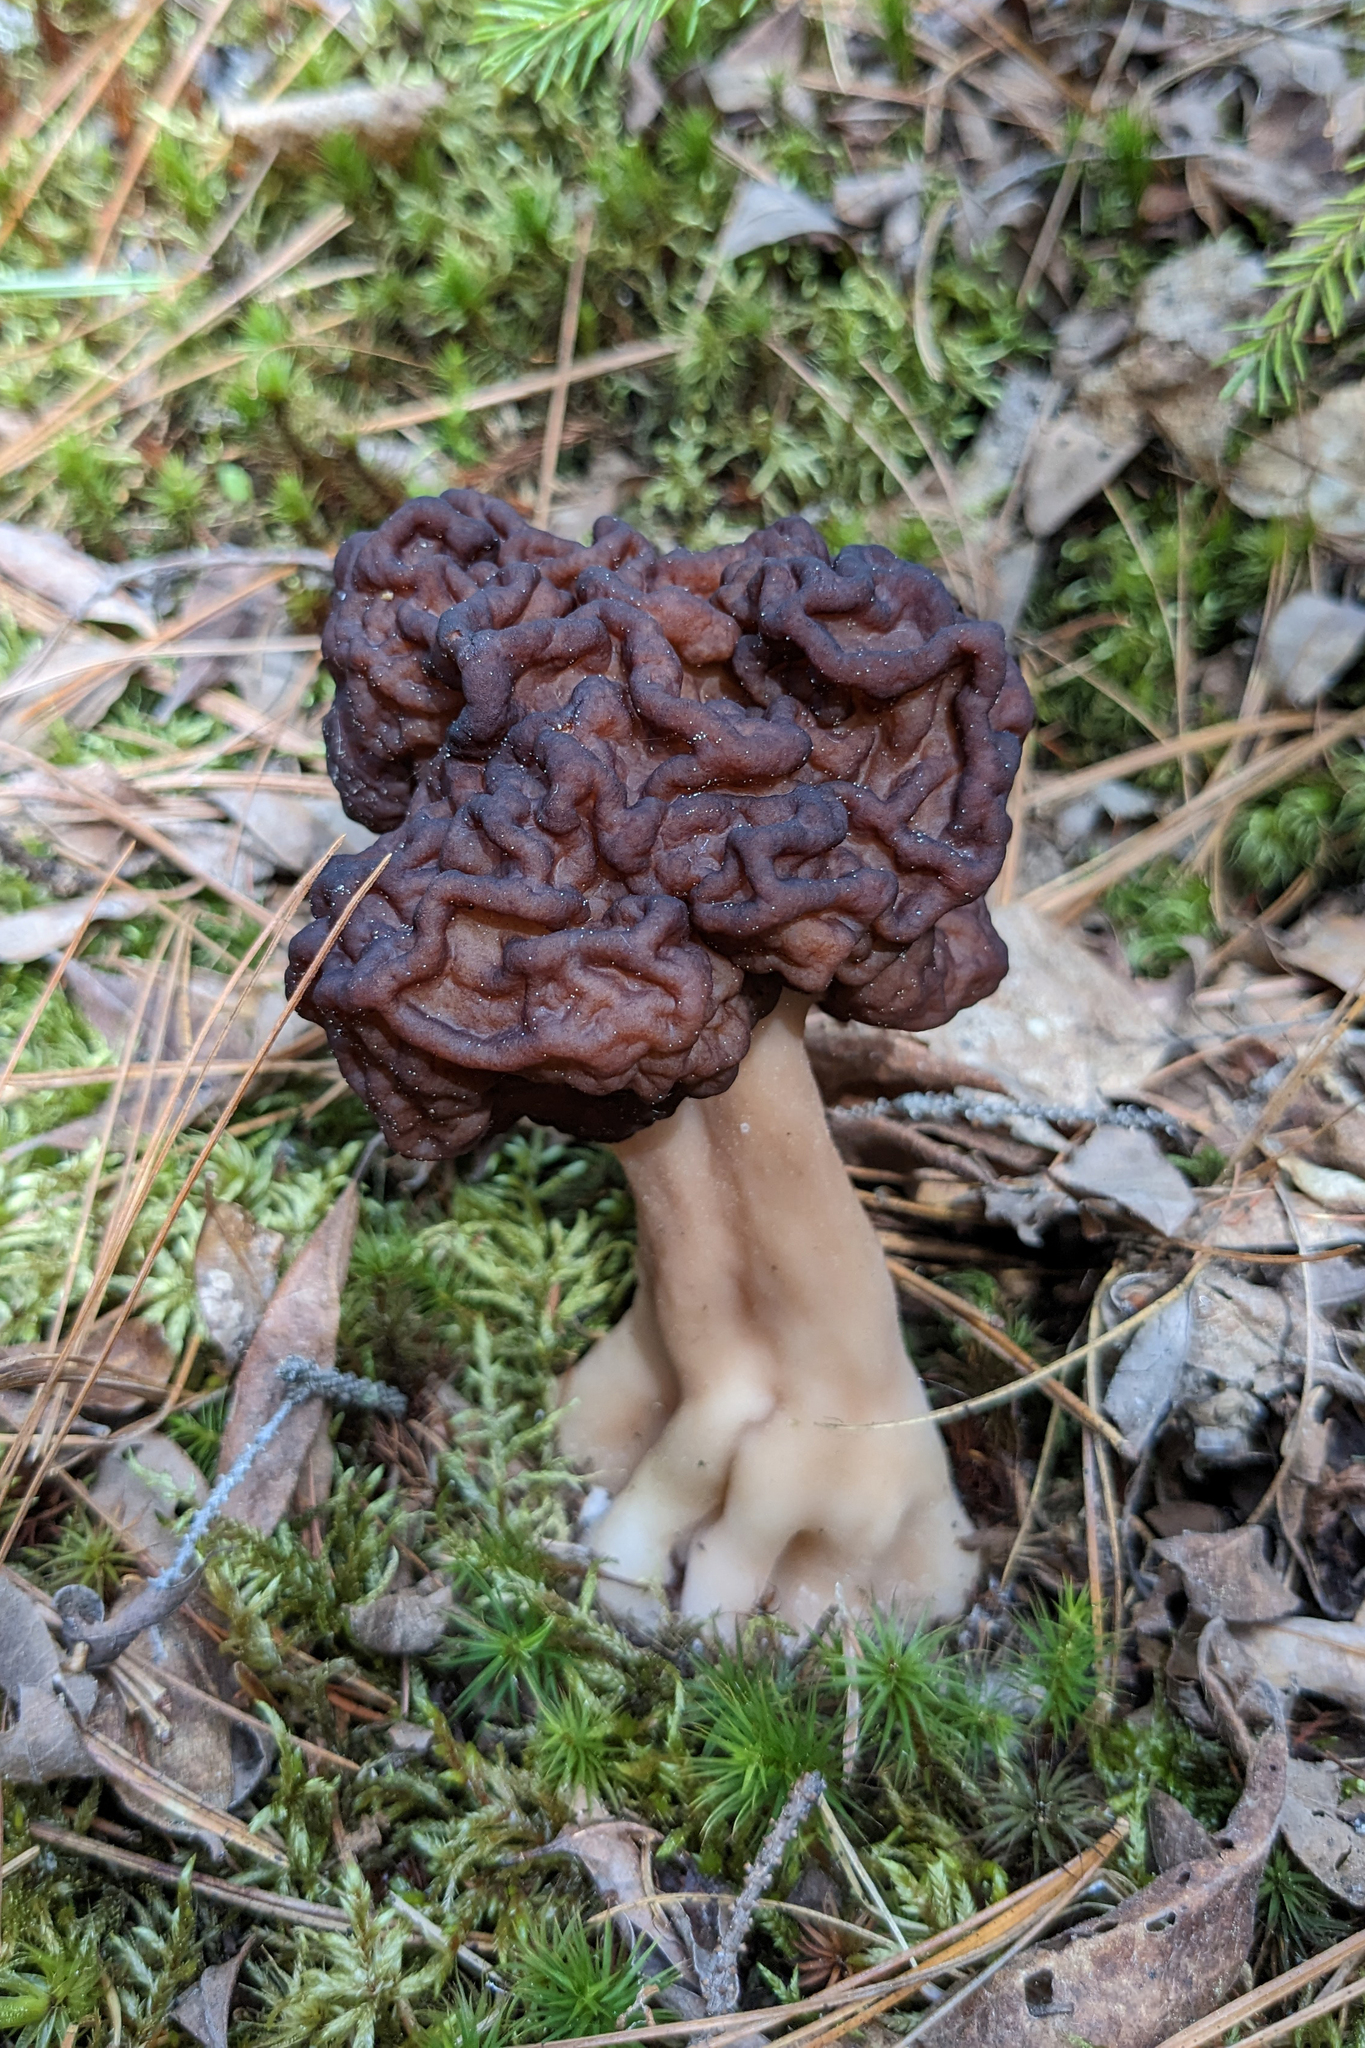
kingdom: Fungi
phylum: Ascomycota
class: Pezizomycetes
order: Pezizales
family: Discinaceae
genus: Gyromitra
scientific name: Gyromitra esculenta
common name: False morel
